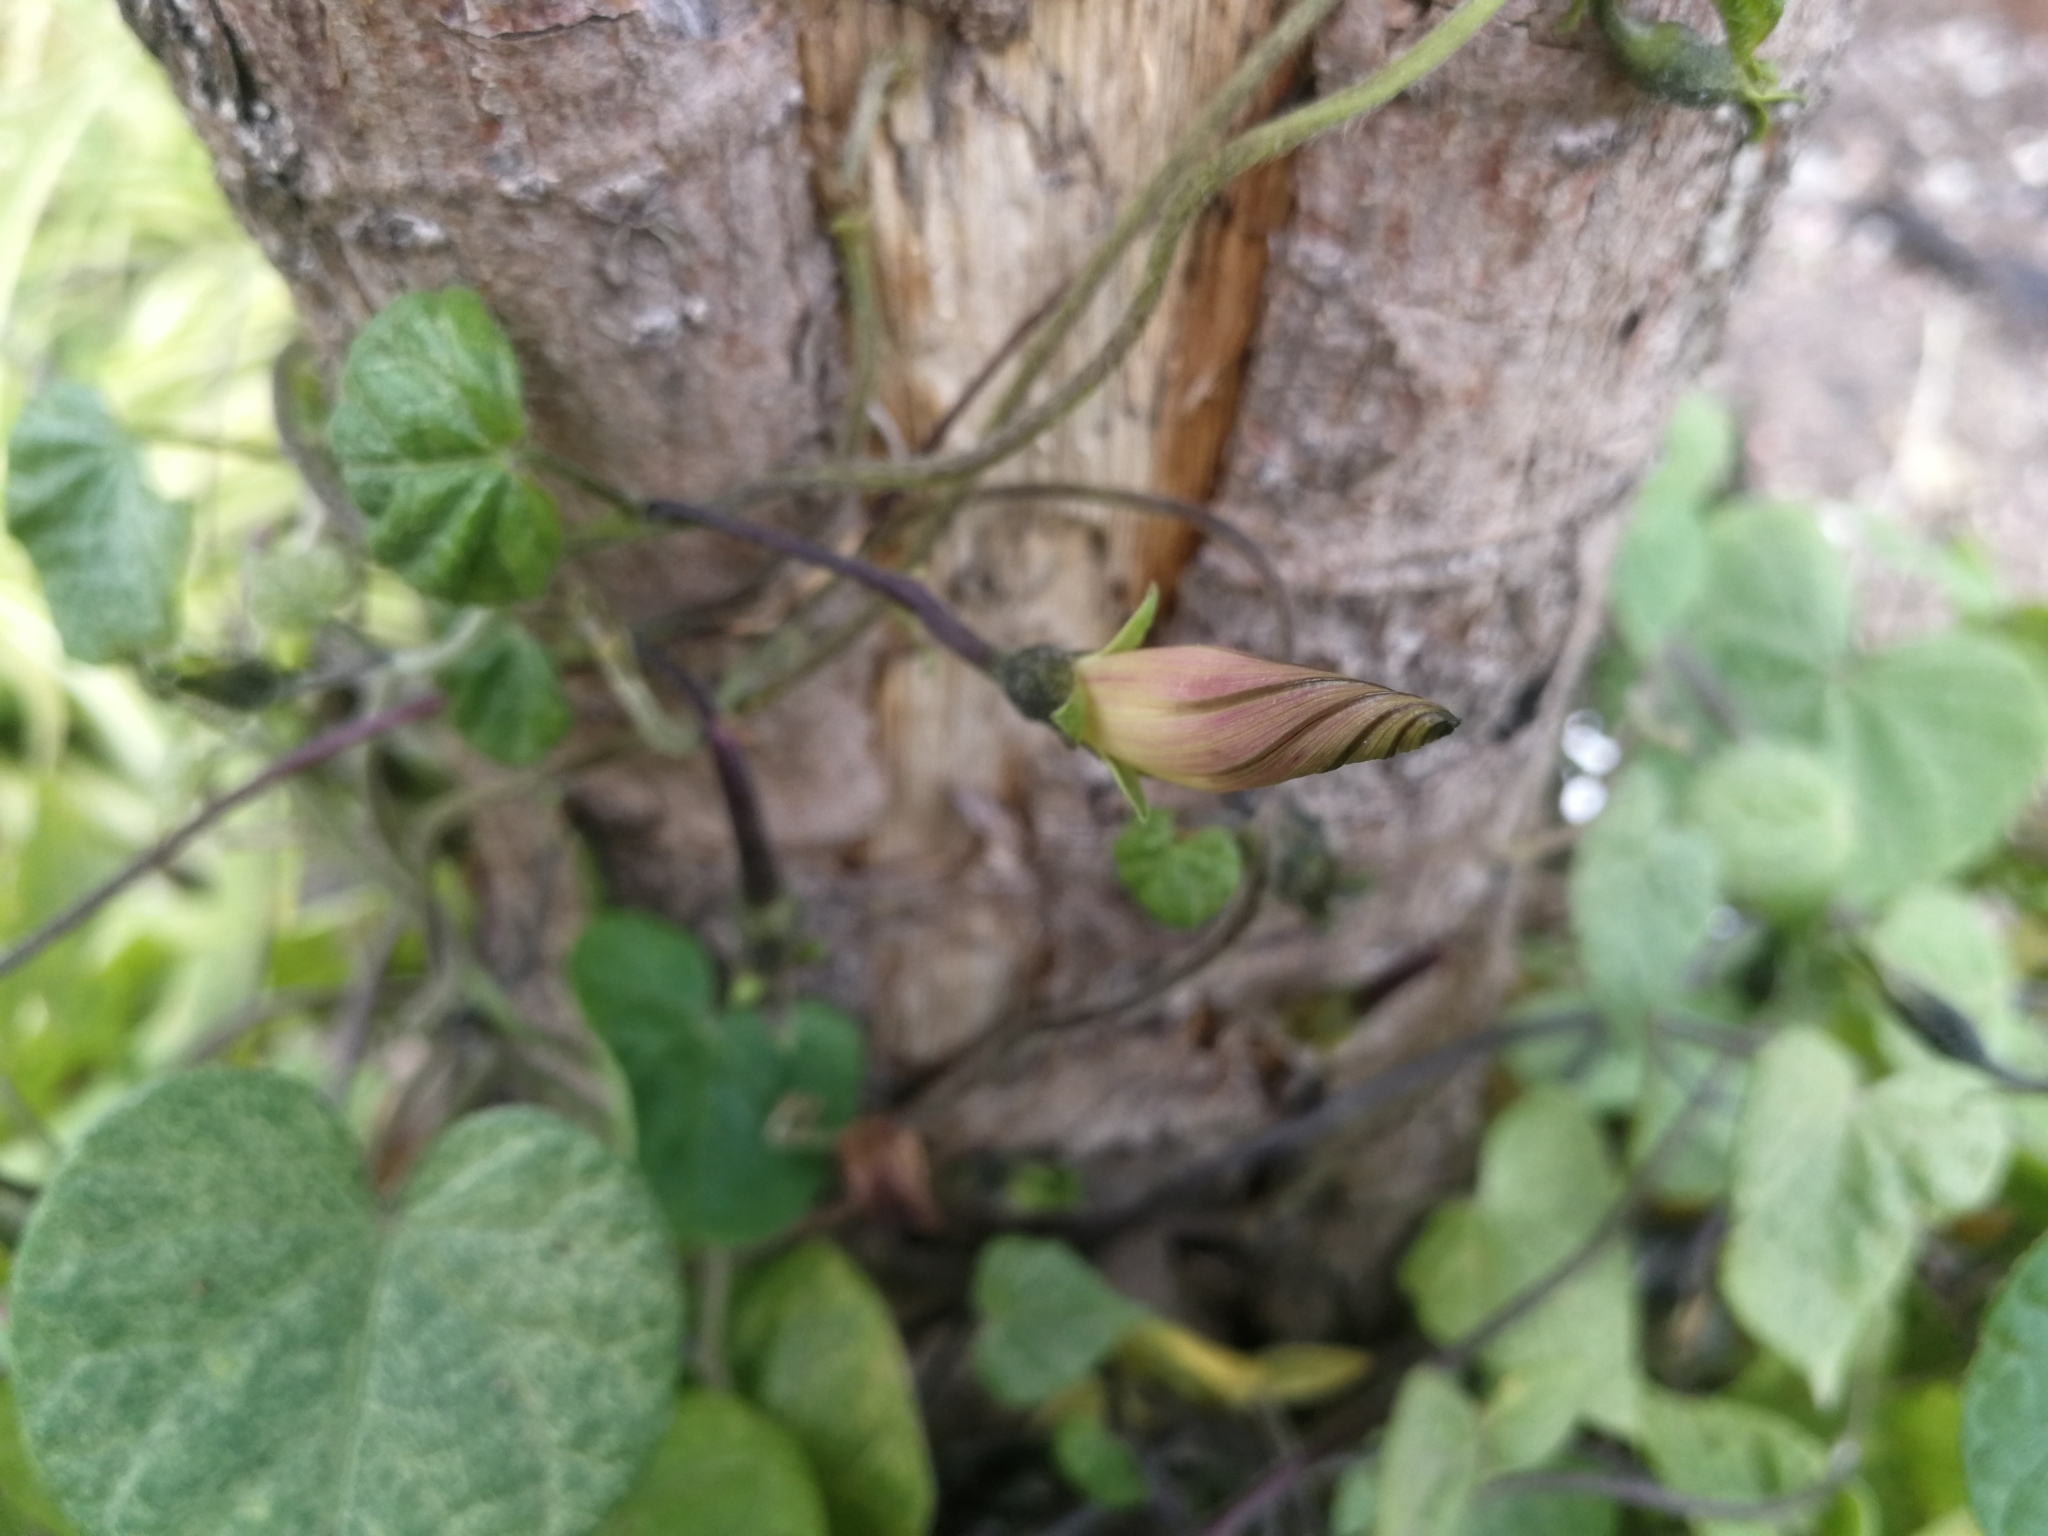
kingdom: Plantae
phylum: Tracheophyta
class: Magnoliopsida
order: Solanales
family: Convolvulaceae
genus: Ipomoea
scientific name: Ipomoea purpurea
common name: Common morning-glory
